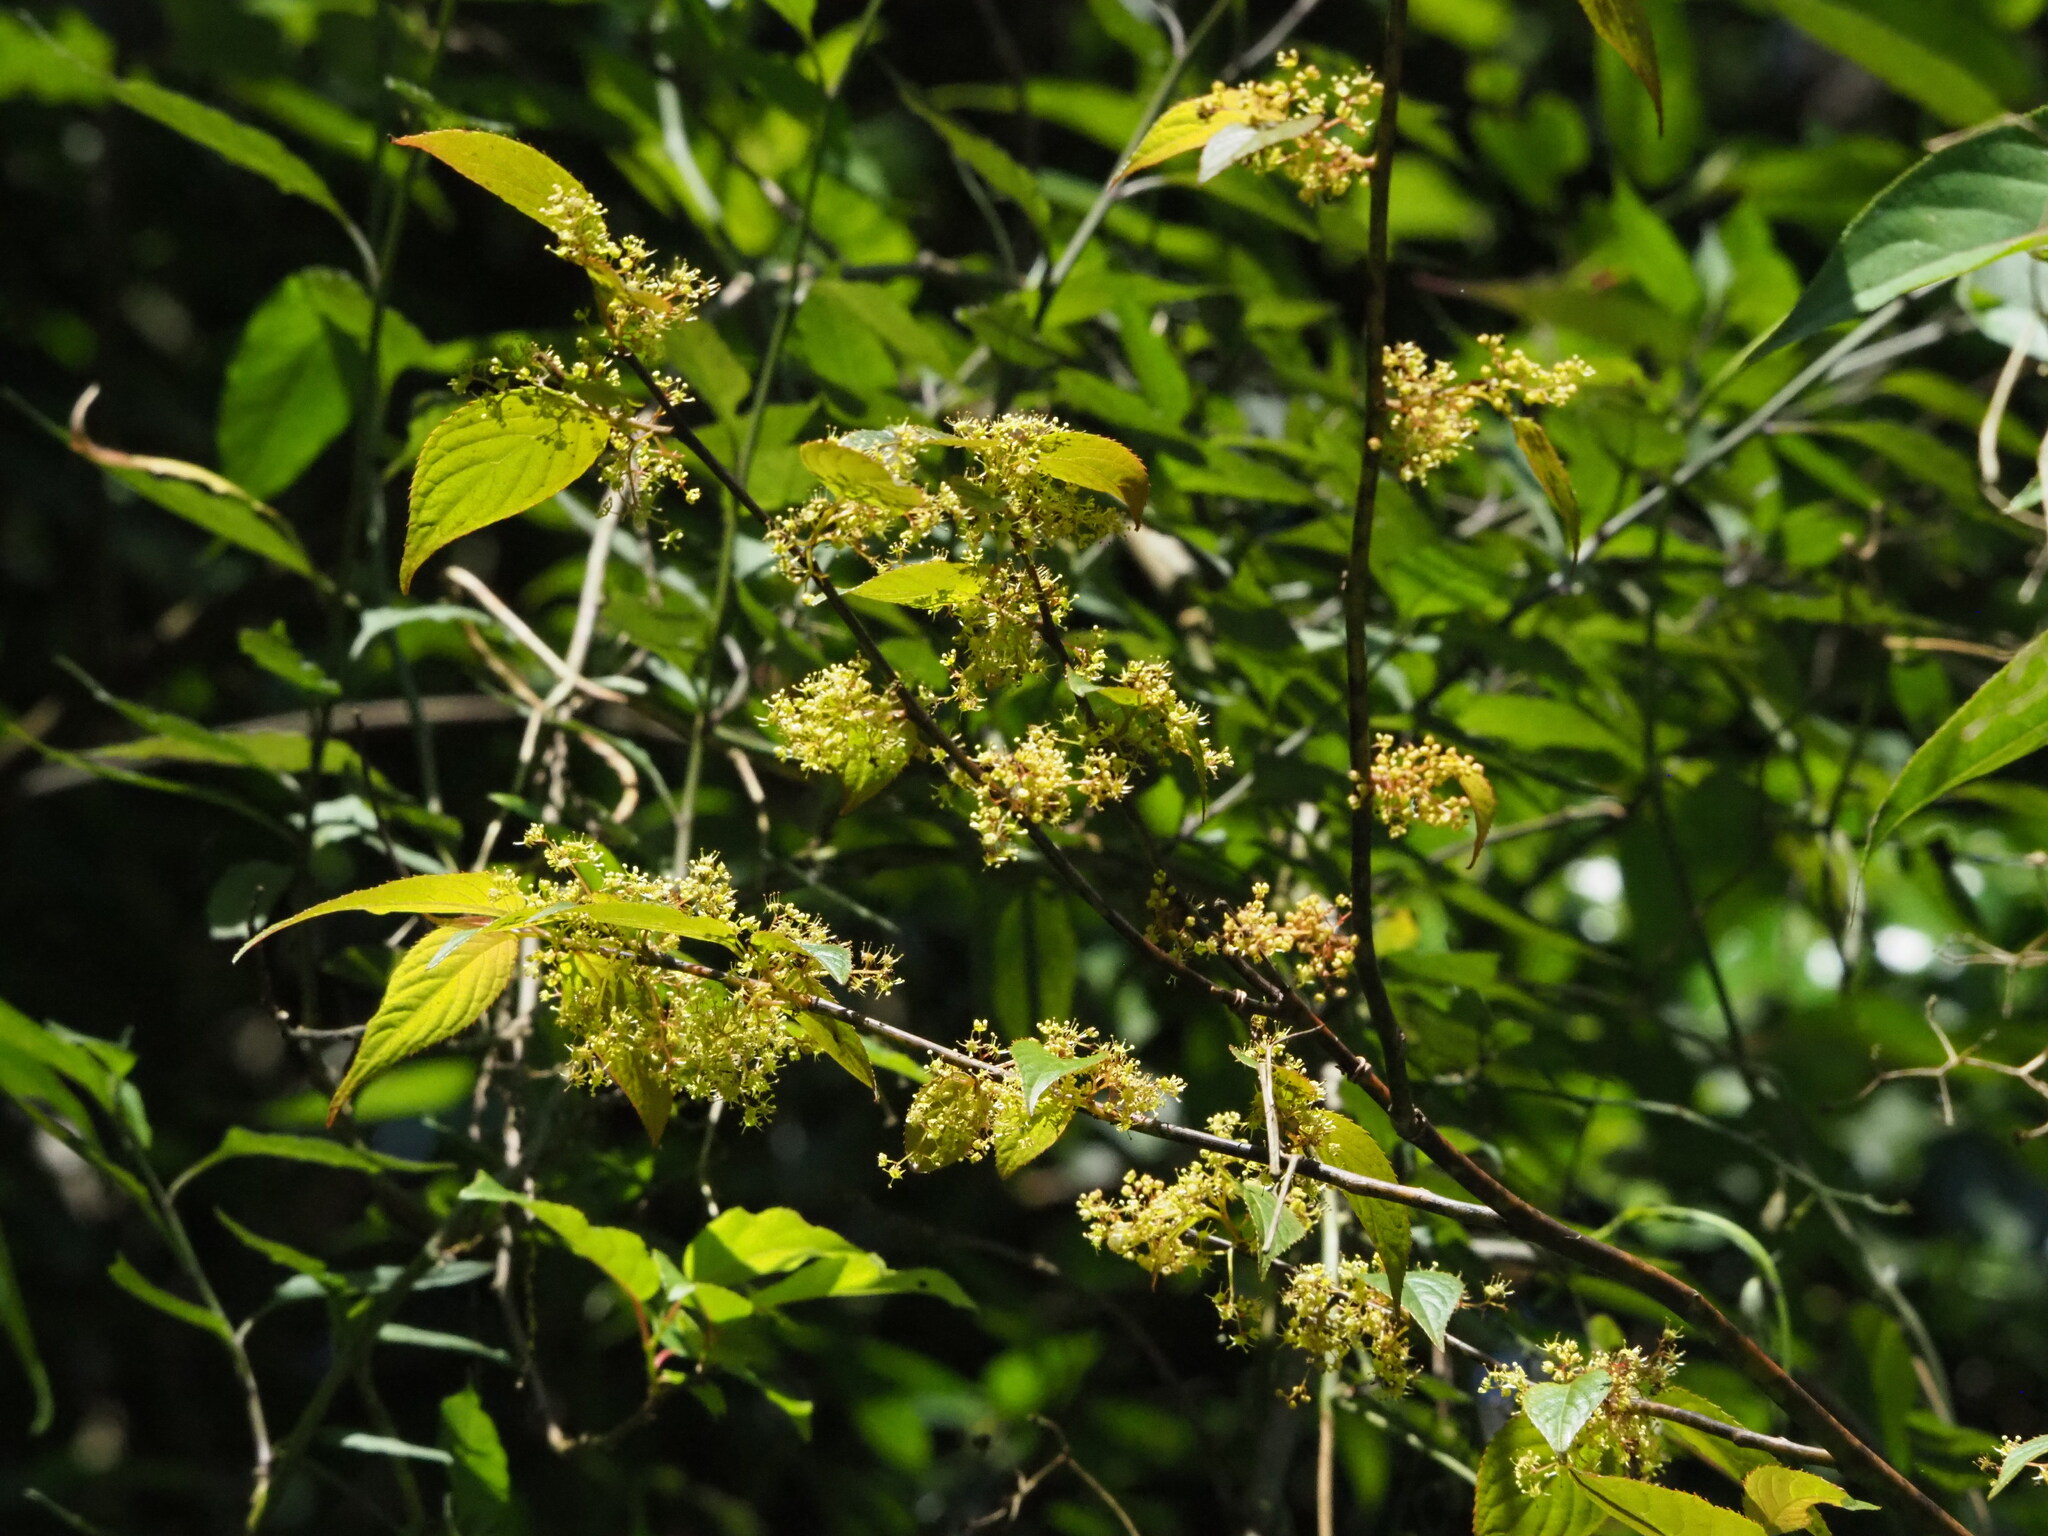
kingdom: Plantae
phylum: Tracheophyta
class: Magnoliopsida
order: Huerteales
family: Dipentodontaceae
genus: Perrottetia
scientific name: Perrottetia arisanensis
